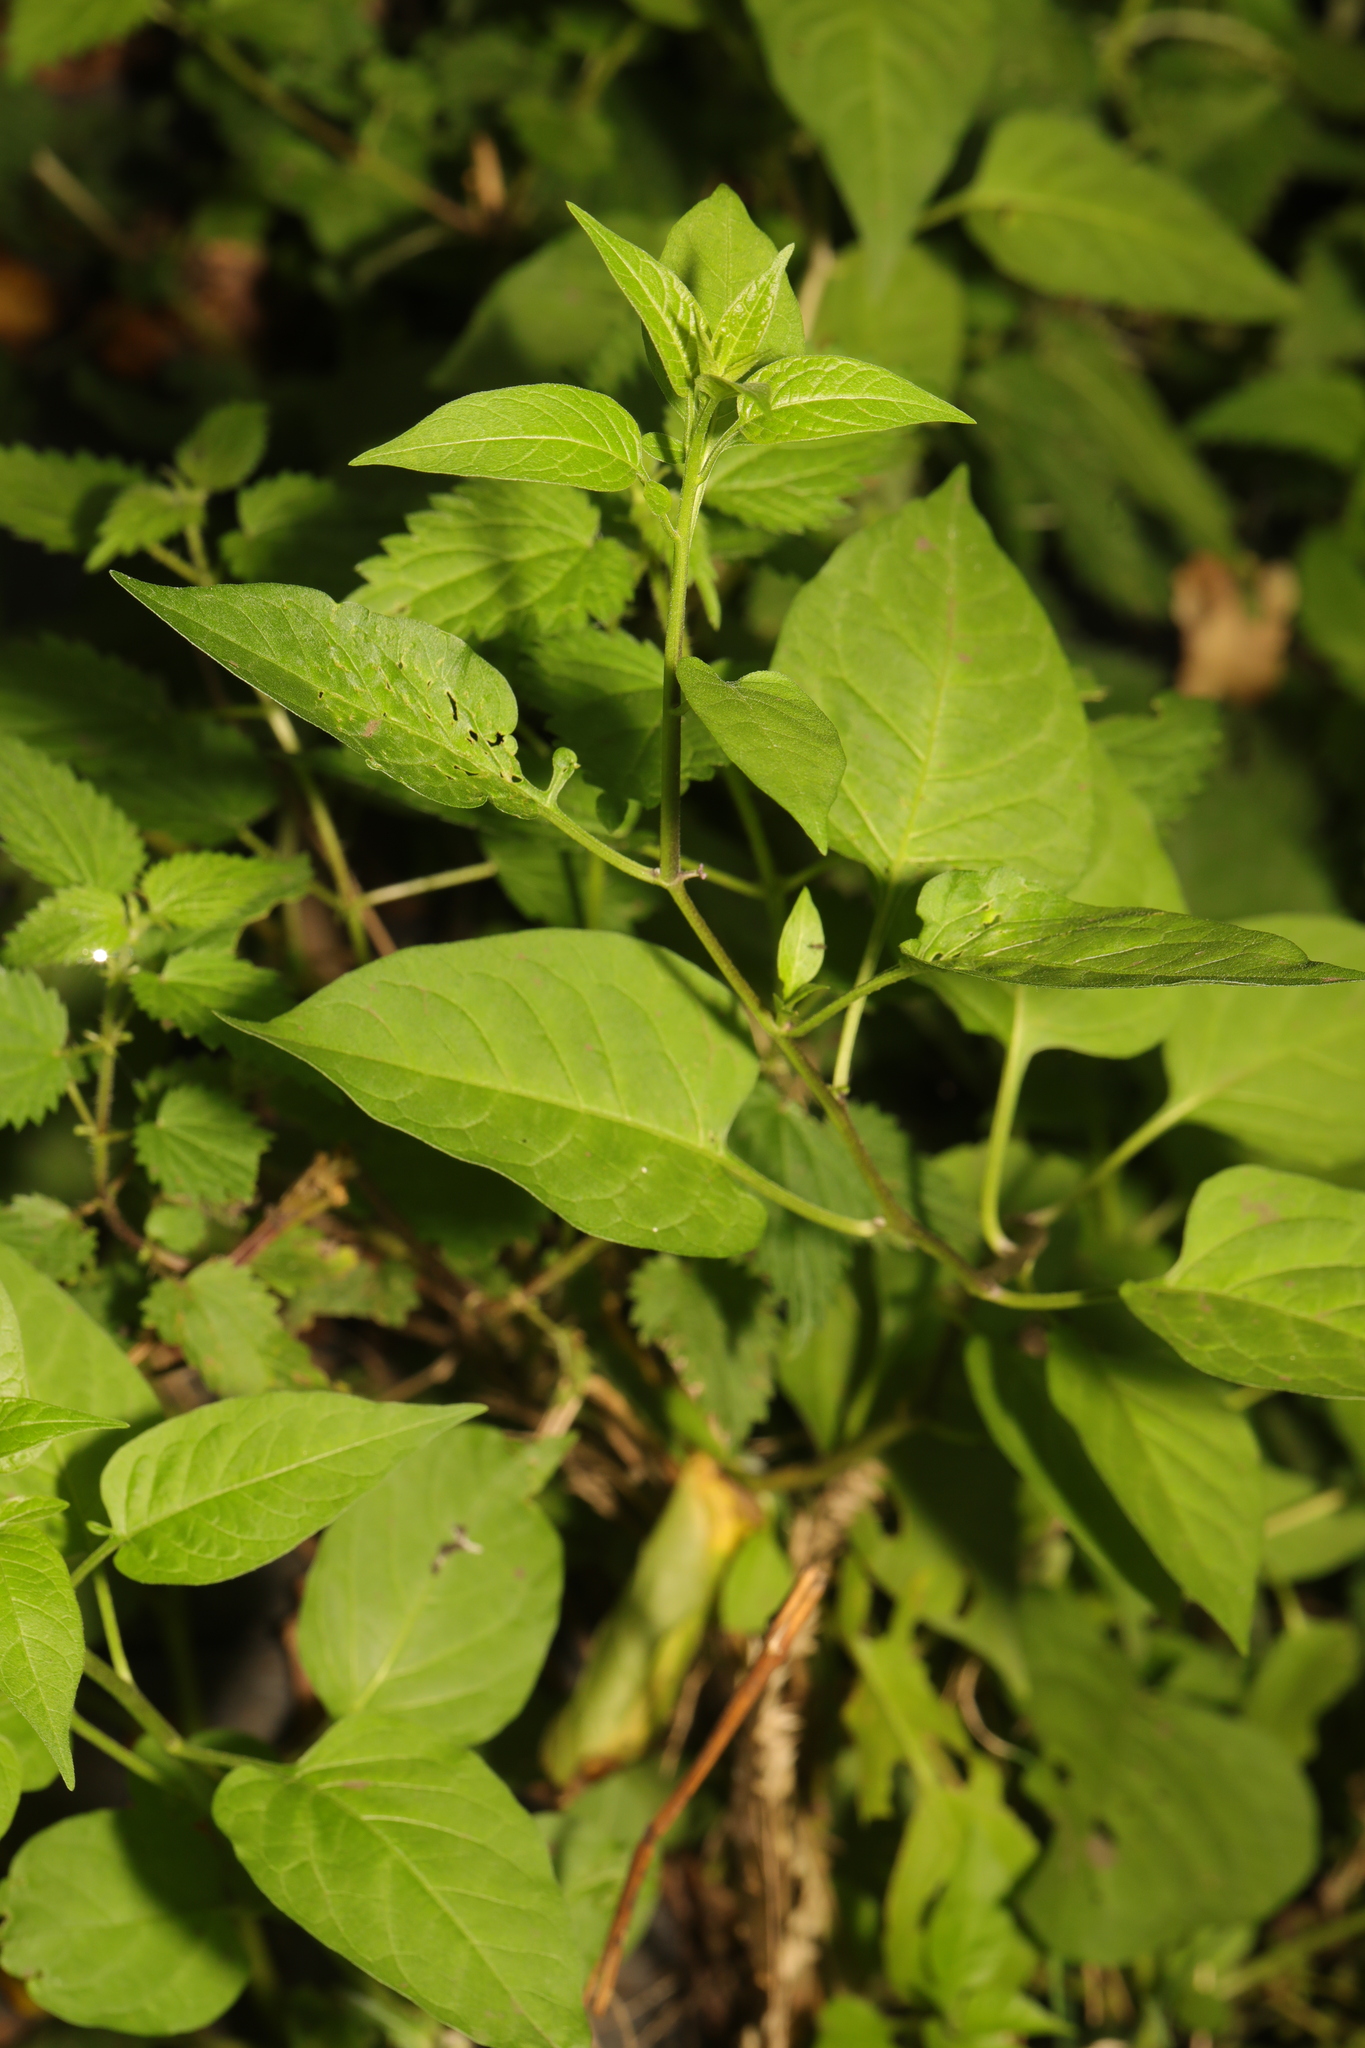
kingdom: Plantae
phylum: Tracheophyta
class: Magnoliopsida
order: Solanales
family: Solanaceae
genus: Solanum
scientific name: Solanum dulcamara
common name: Climbing nightshade
